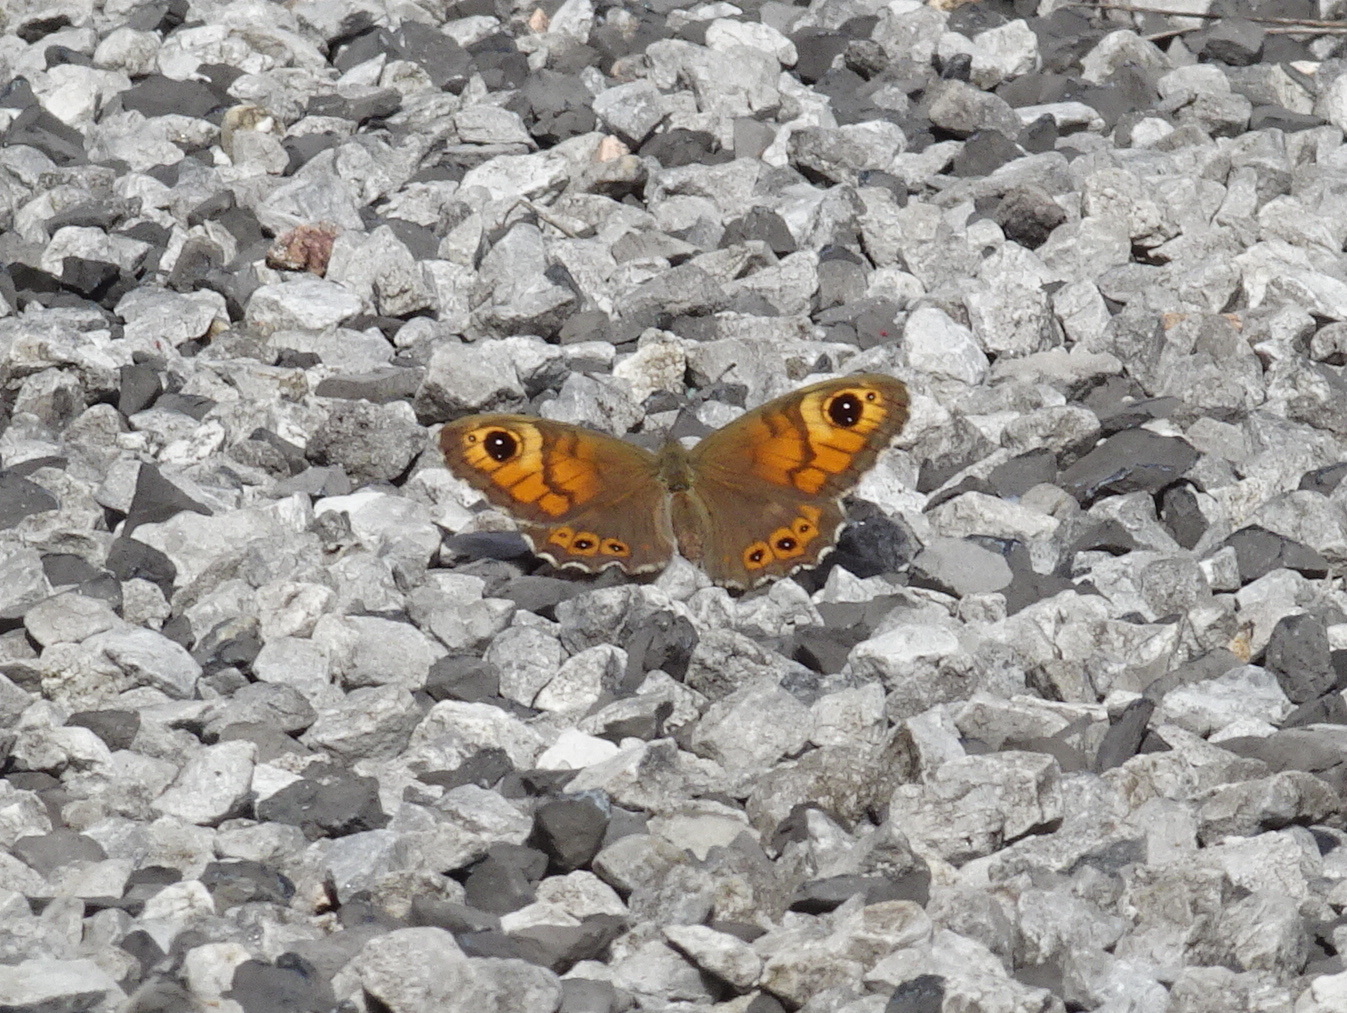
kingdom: Animalia
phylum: Arthropoda
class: Insecta
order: Lepidoptera
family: Nymphalidae
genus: Pararge
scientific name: Pararge Lasiommata maera
